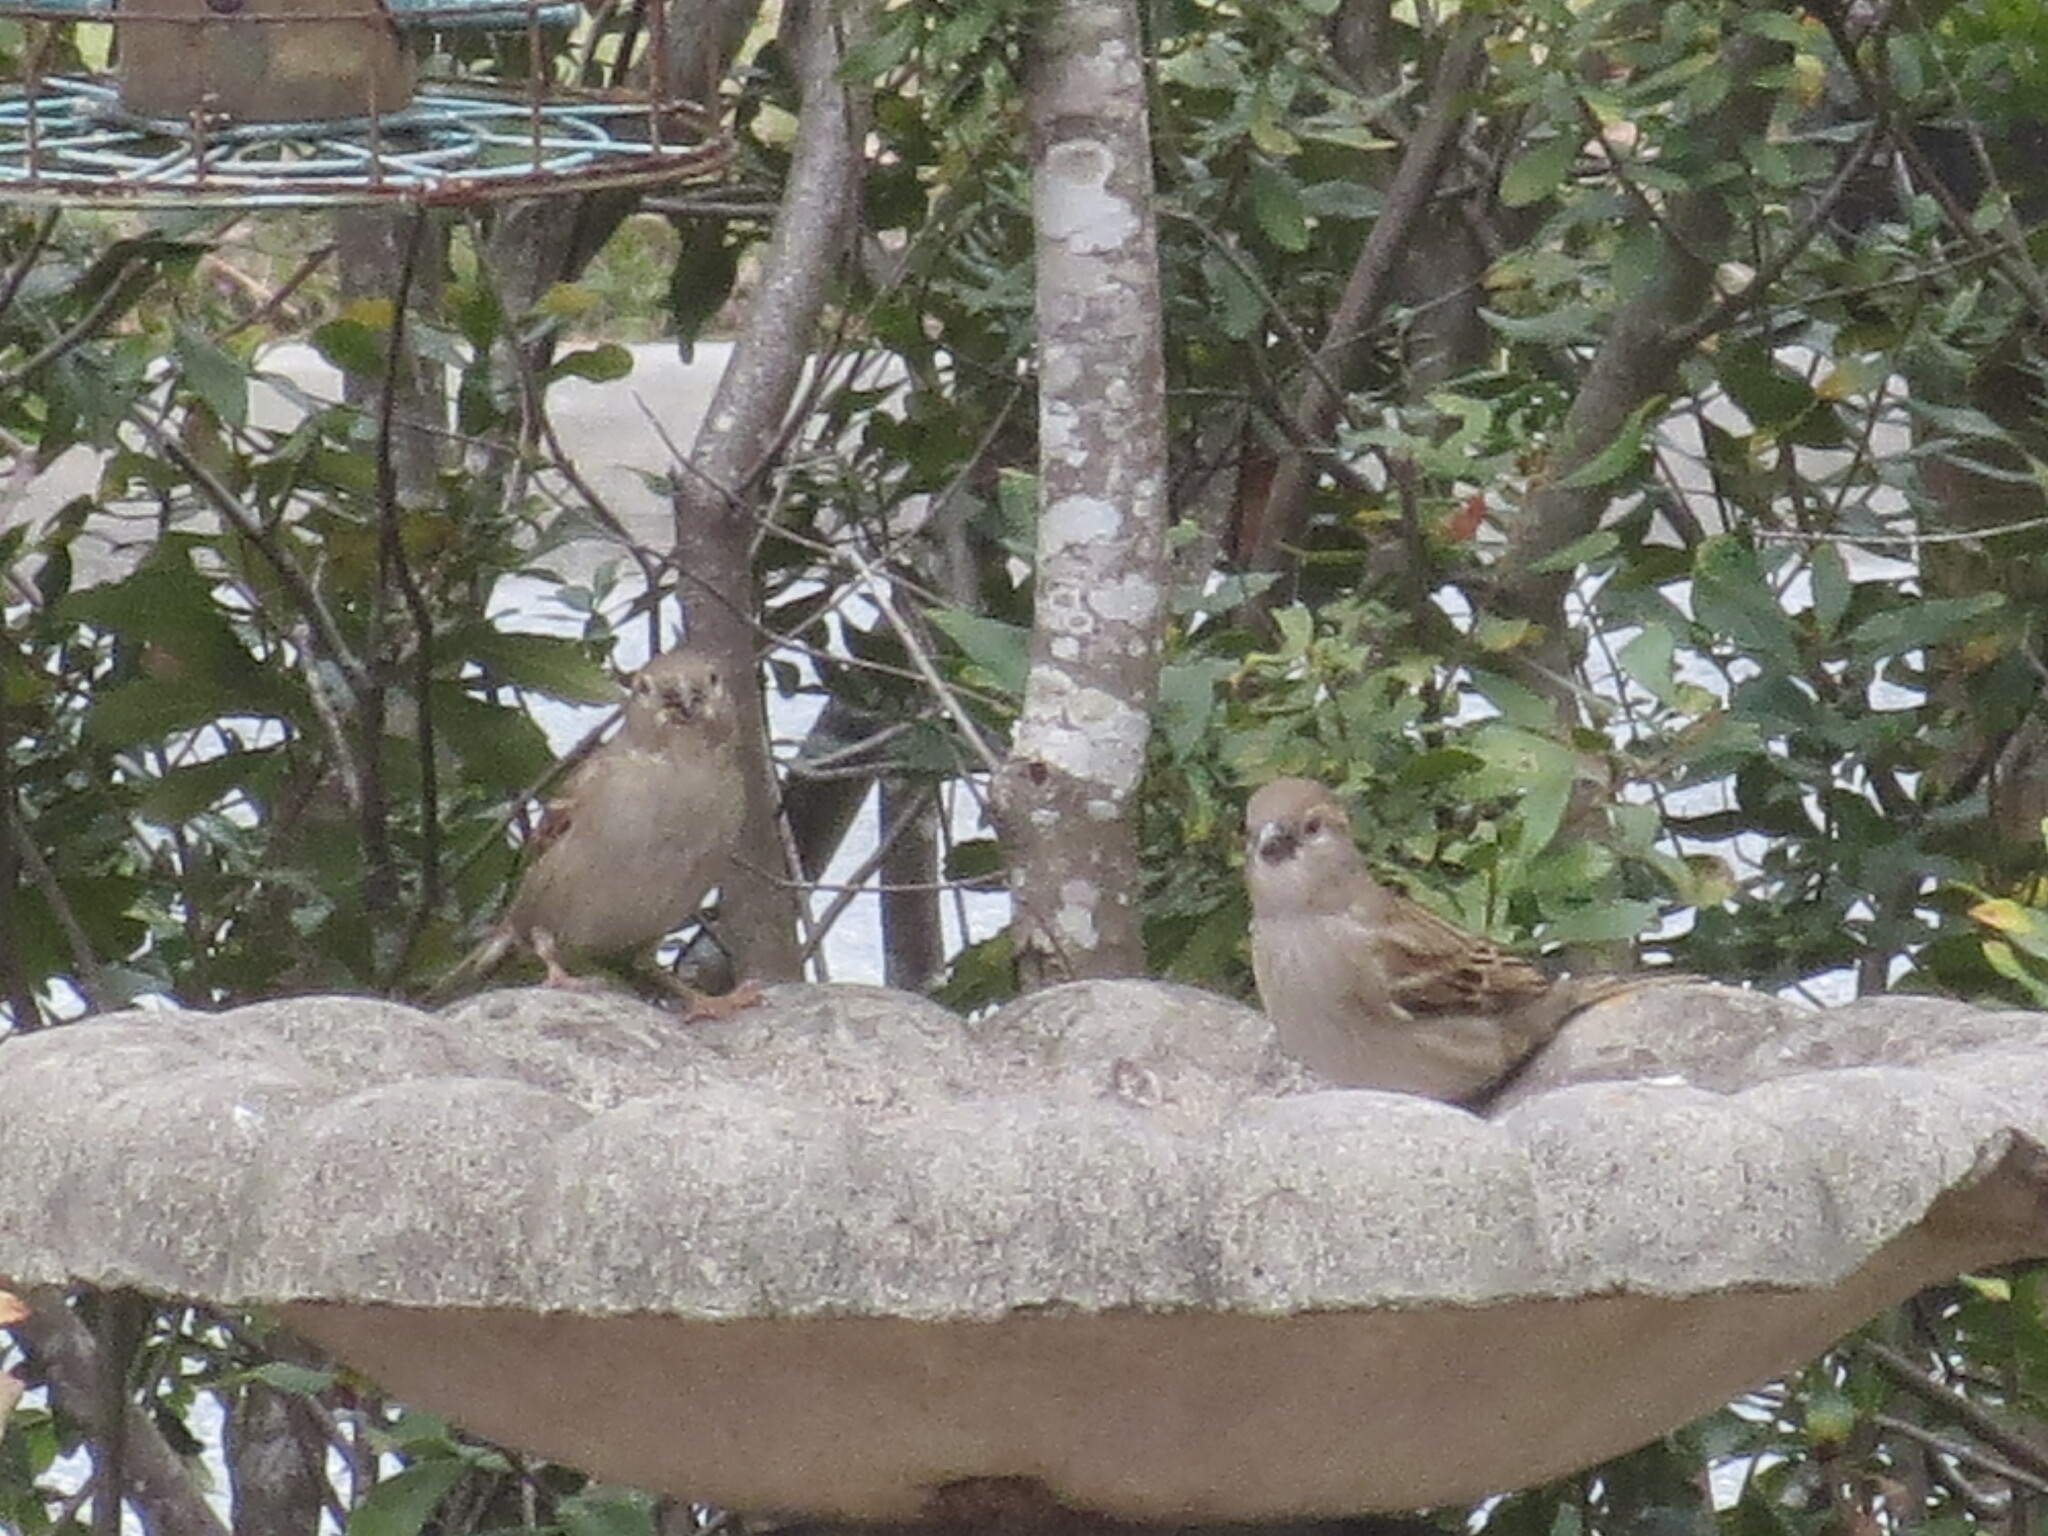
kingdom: Animalia
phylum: Chordata
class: Aves
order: Passeriformes
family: Passeridae
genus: Passer
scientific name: Passer domesticus
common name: House sparrow
